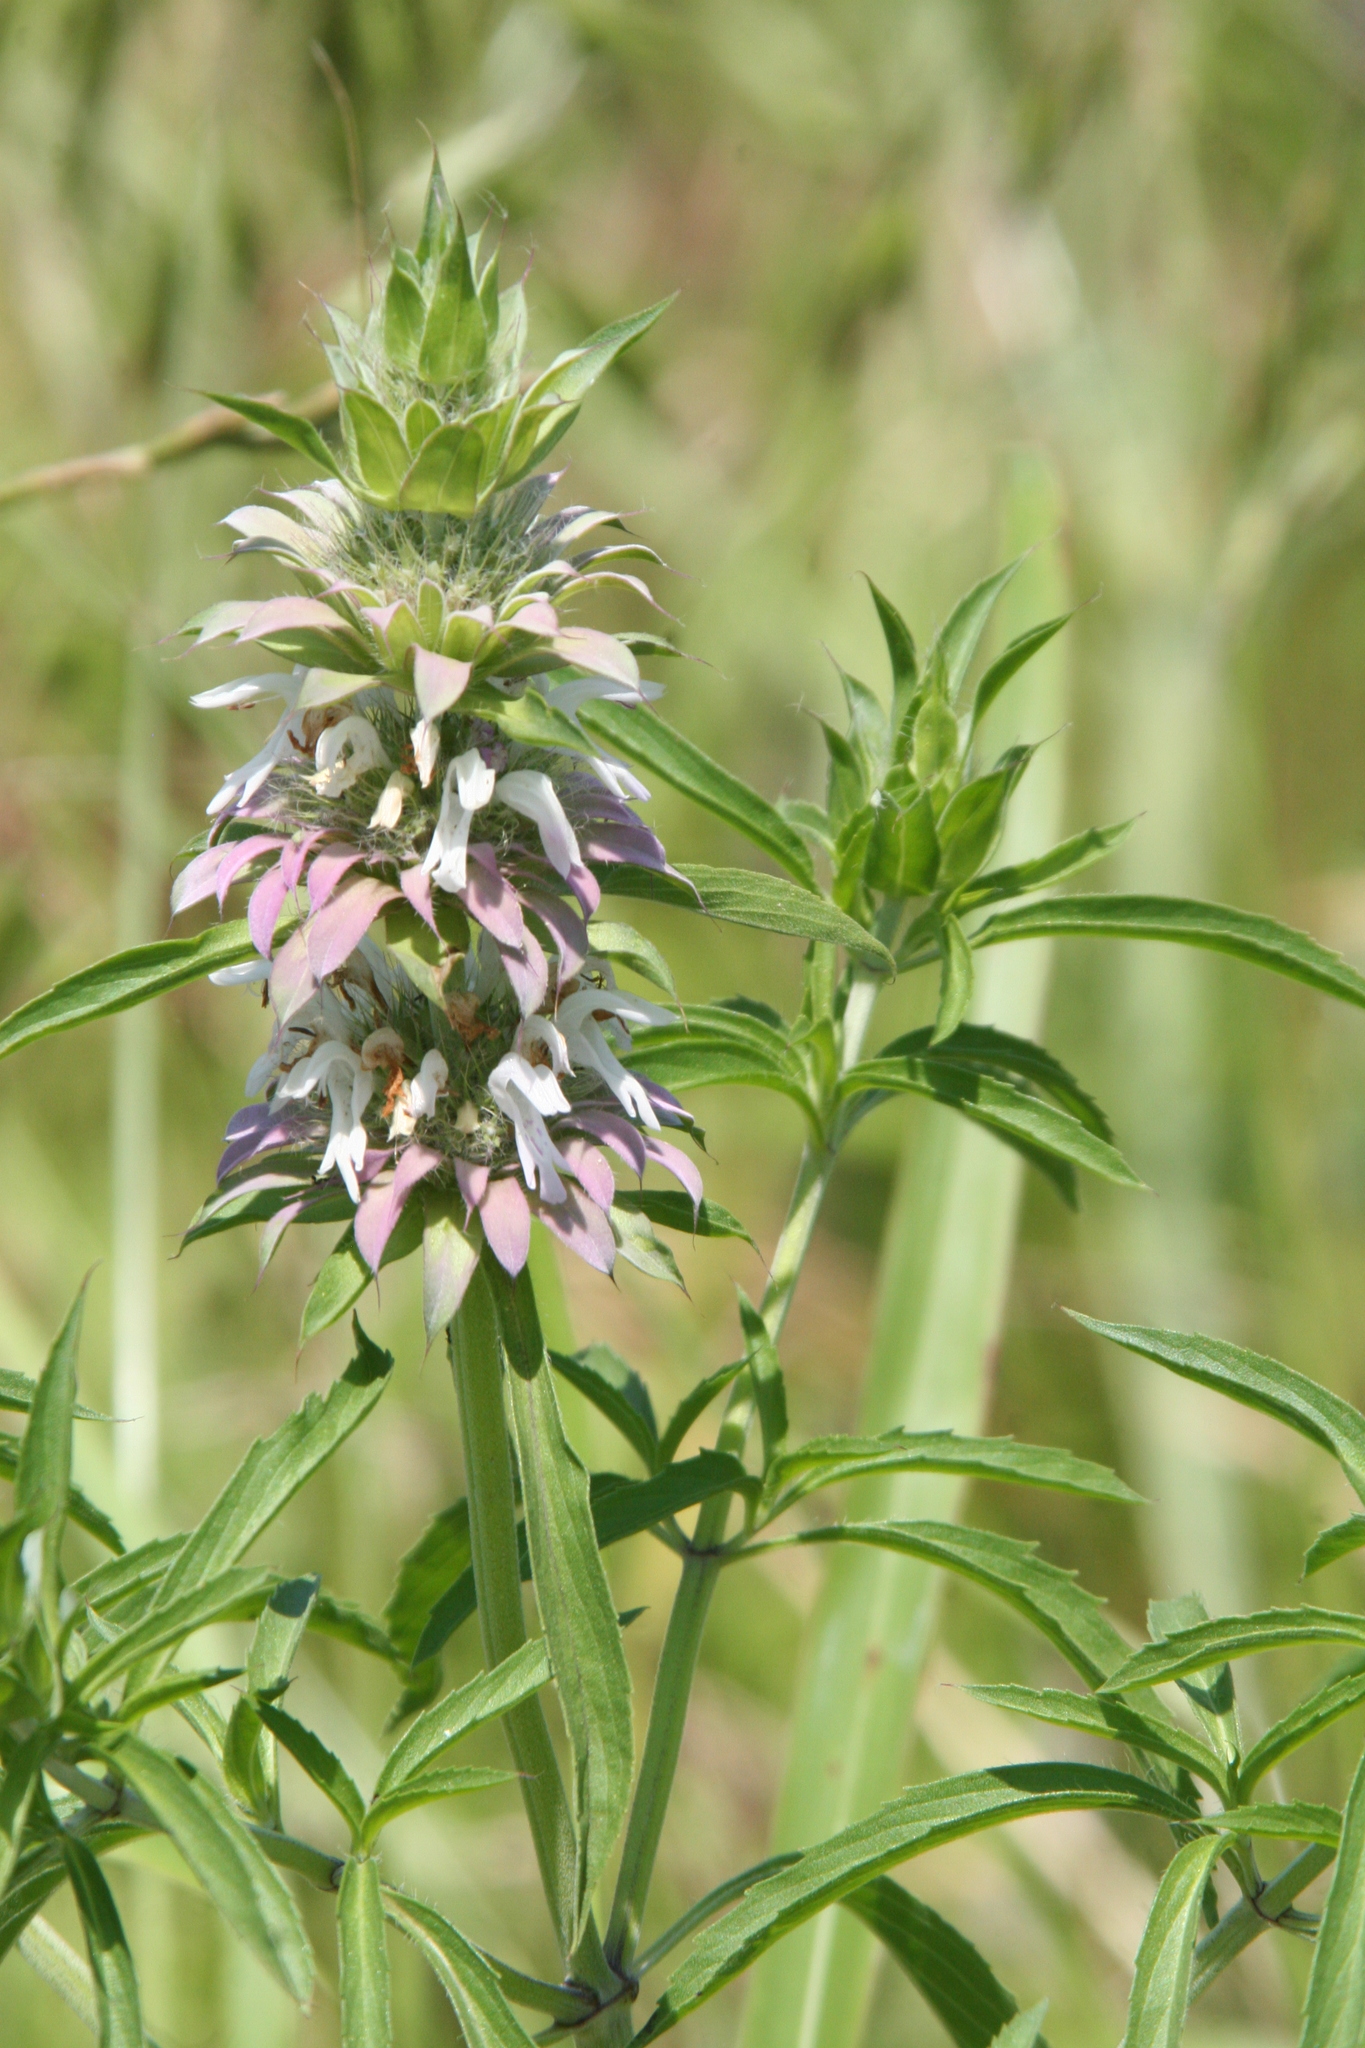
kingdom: Plantae
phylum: Tracheophyta
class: Magnoliopsida
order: Lamiales
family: Lamiaceae
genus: Monarda
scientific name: Monarda citriodora
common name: Lemon beebalm
